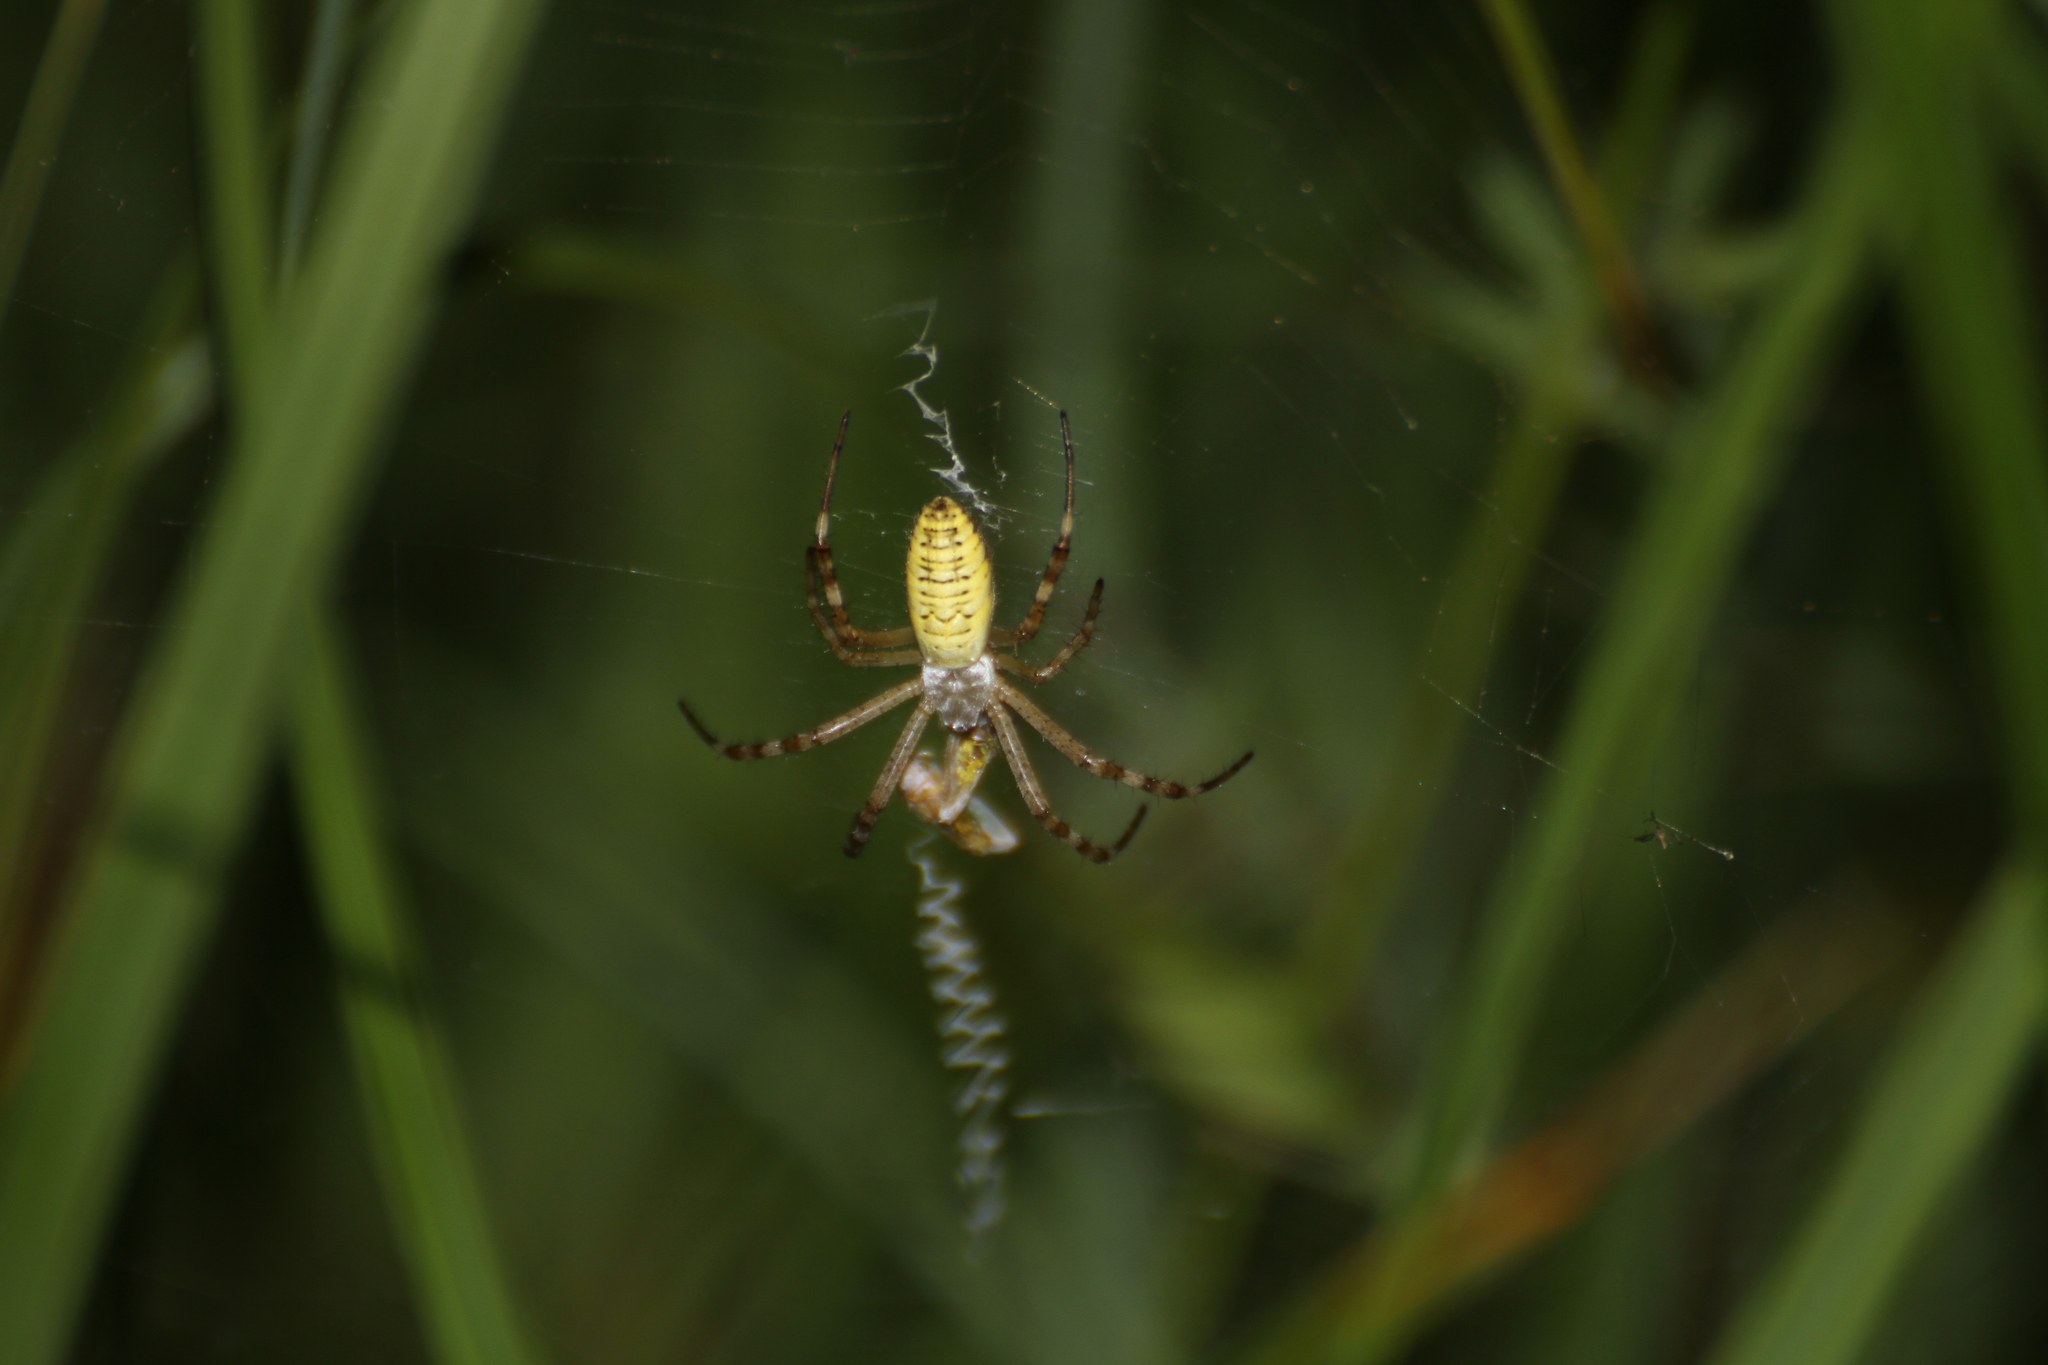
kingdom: Animalia
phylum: Arthropoda
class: Arachnida
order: Araneae
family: Araneidae
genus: Argiope
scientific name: Argiope bruennichi
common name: Wasp spider
